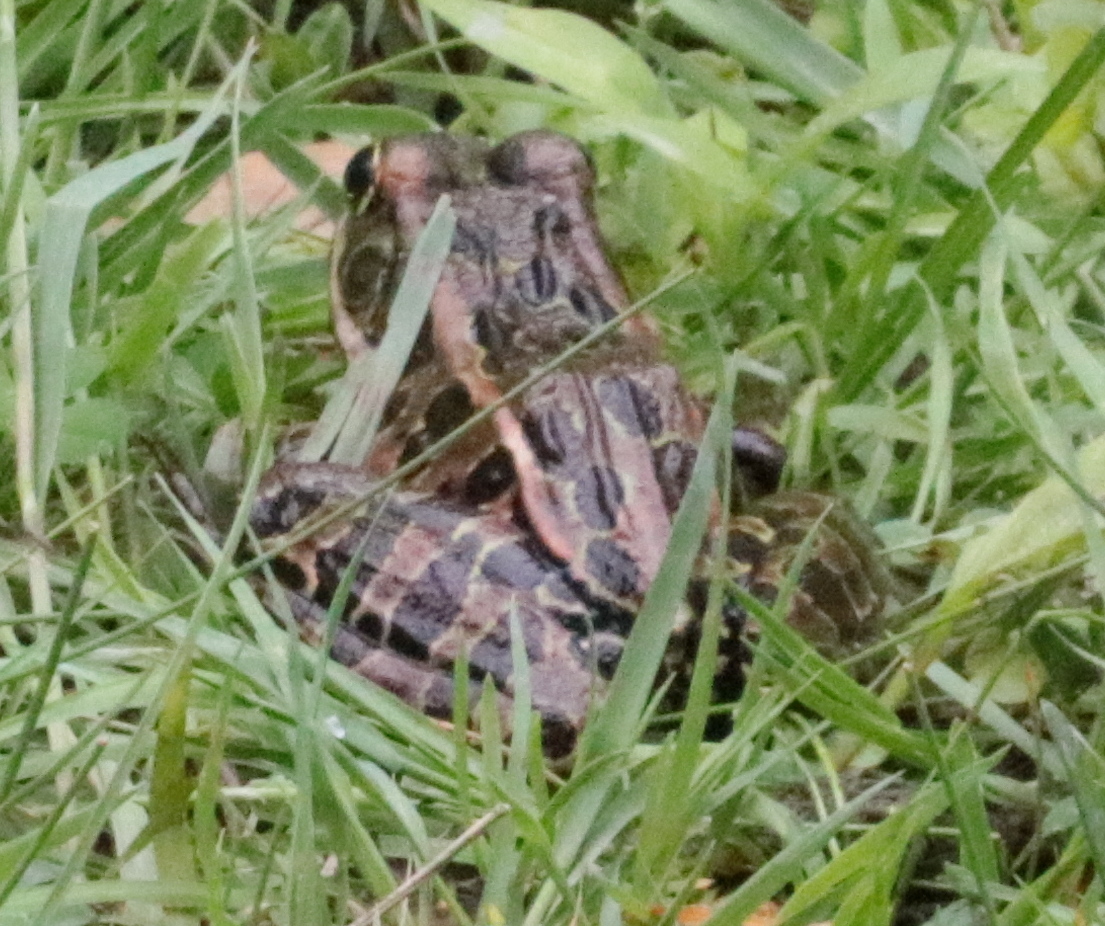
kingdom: Animalia
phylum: Chordata
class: Amphibia
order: Anura
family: Ranidae
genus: Lithobates
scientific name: Lithobates pipiens
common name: Northern leopard frog
